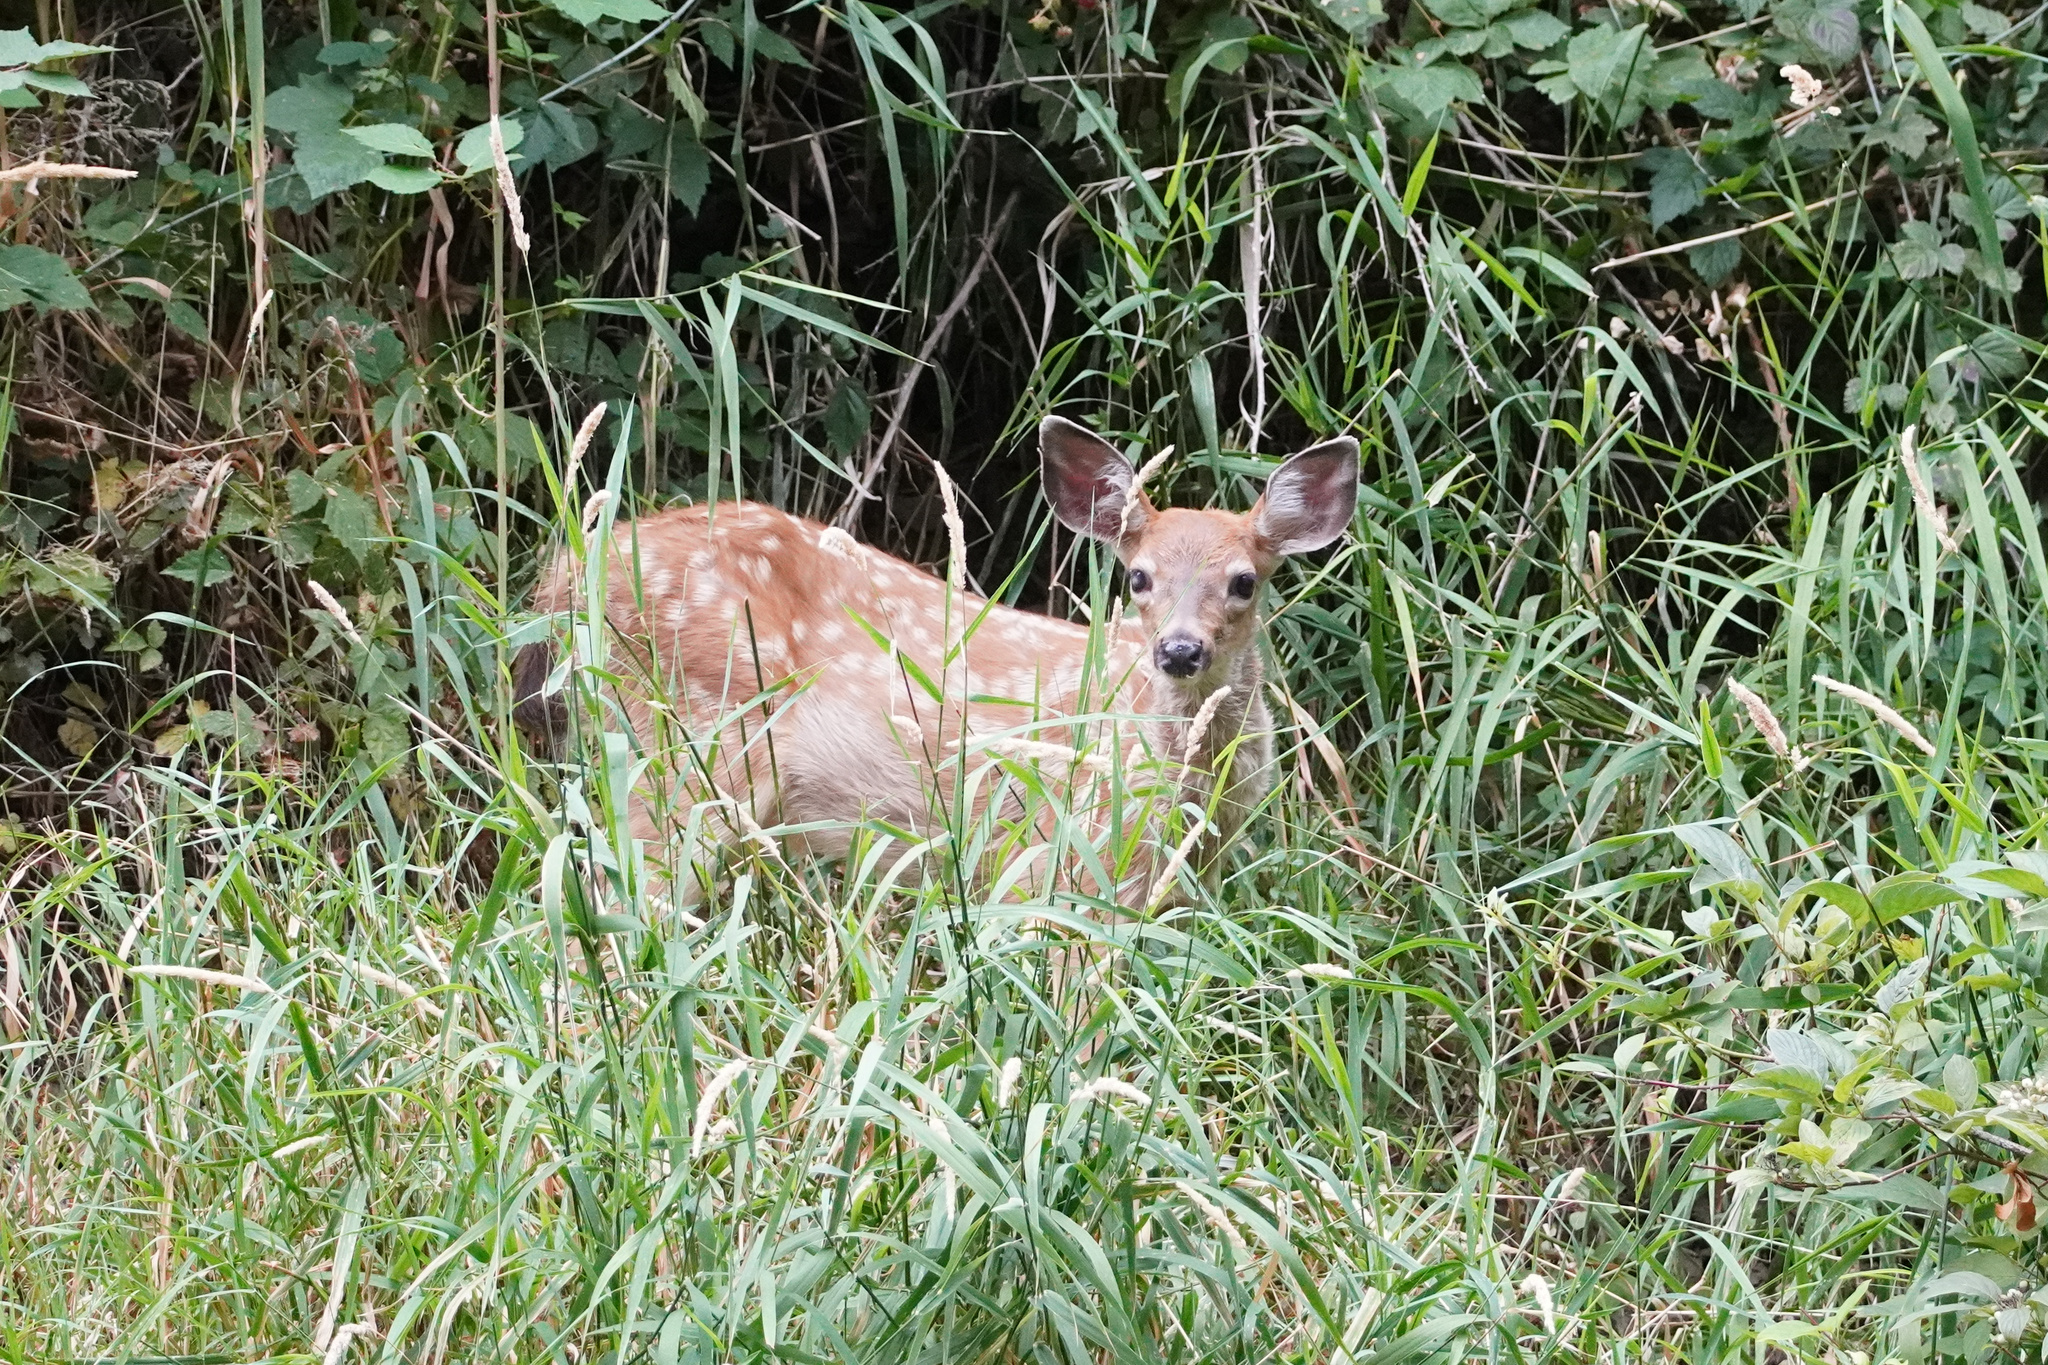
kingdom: Animalia
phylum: Chordata
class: Mammalia
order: Artiodactyla
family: Cervidae
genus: Odocoileus
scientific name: Odocoileus hemionus
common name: Mule deer
